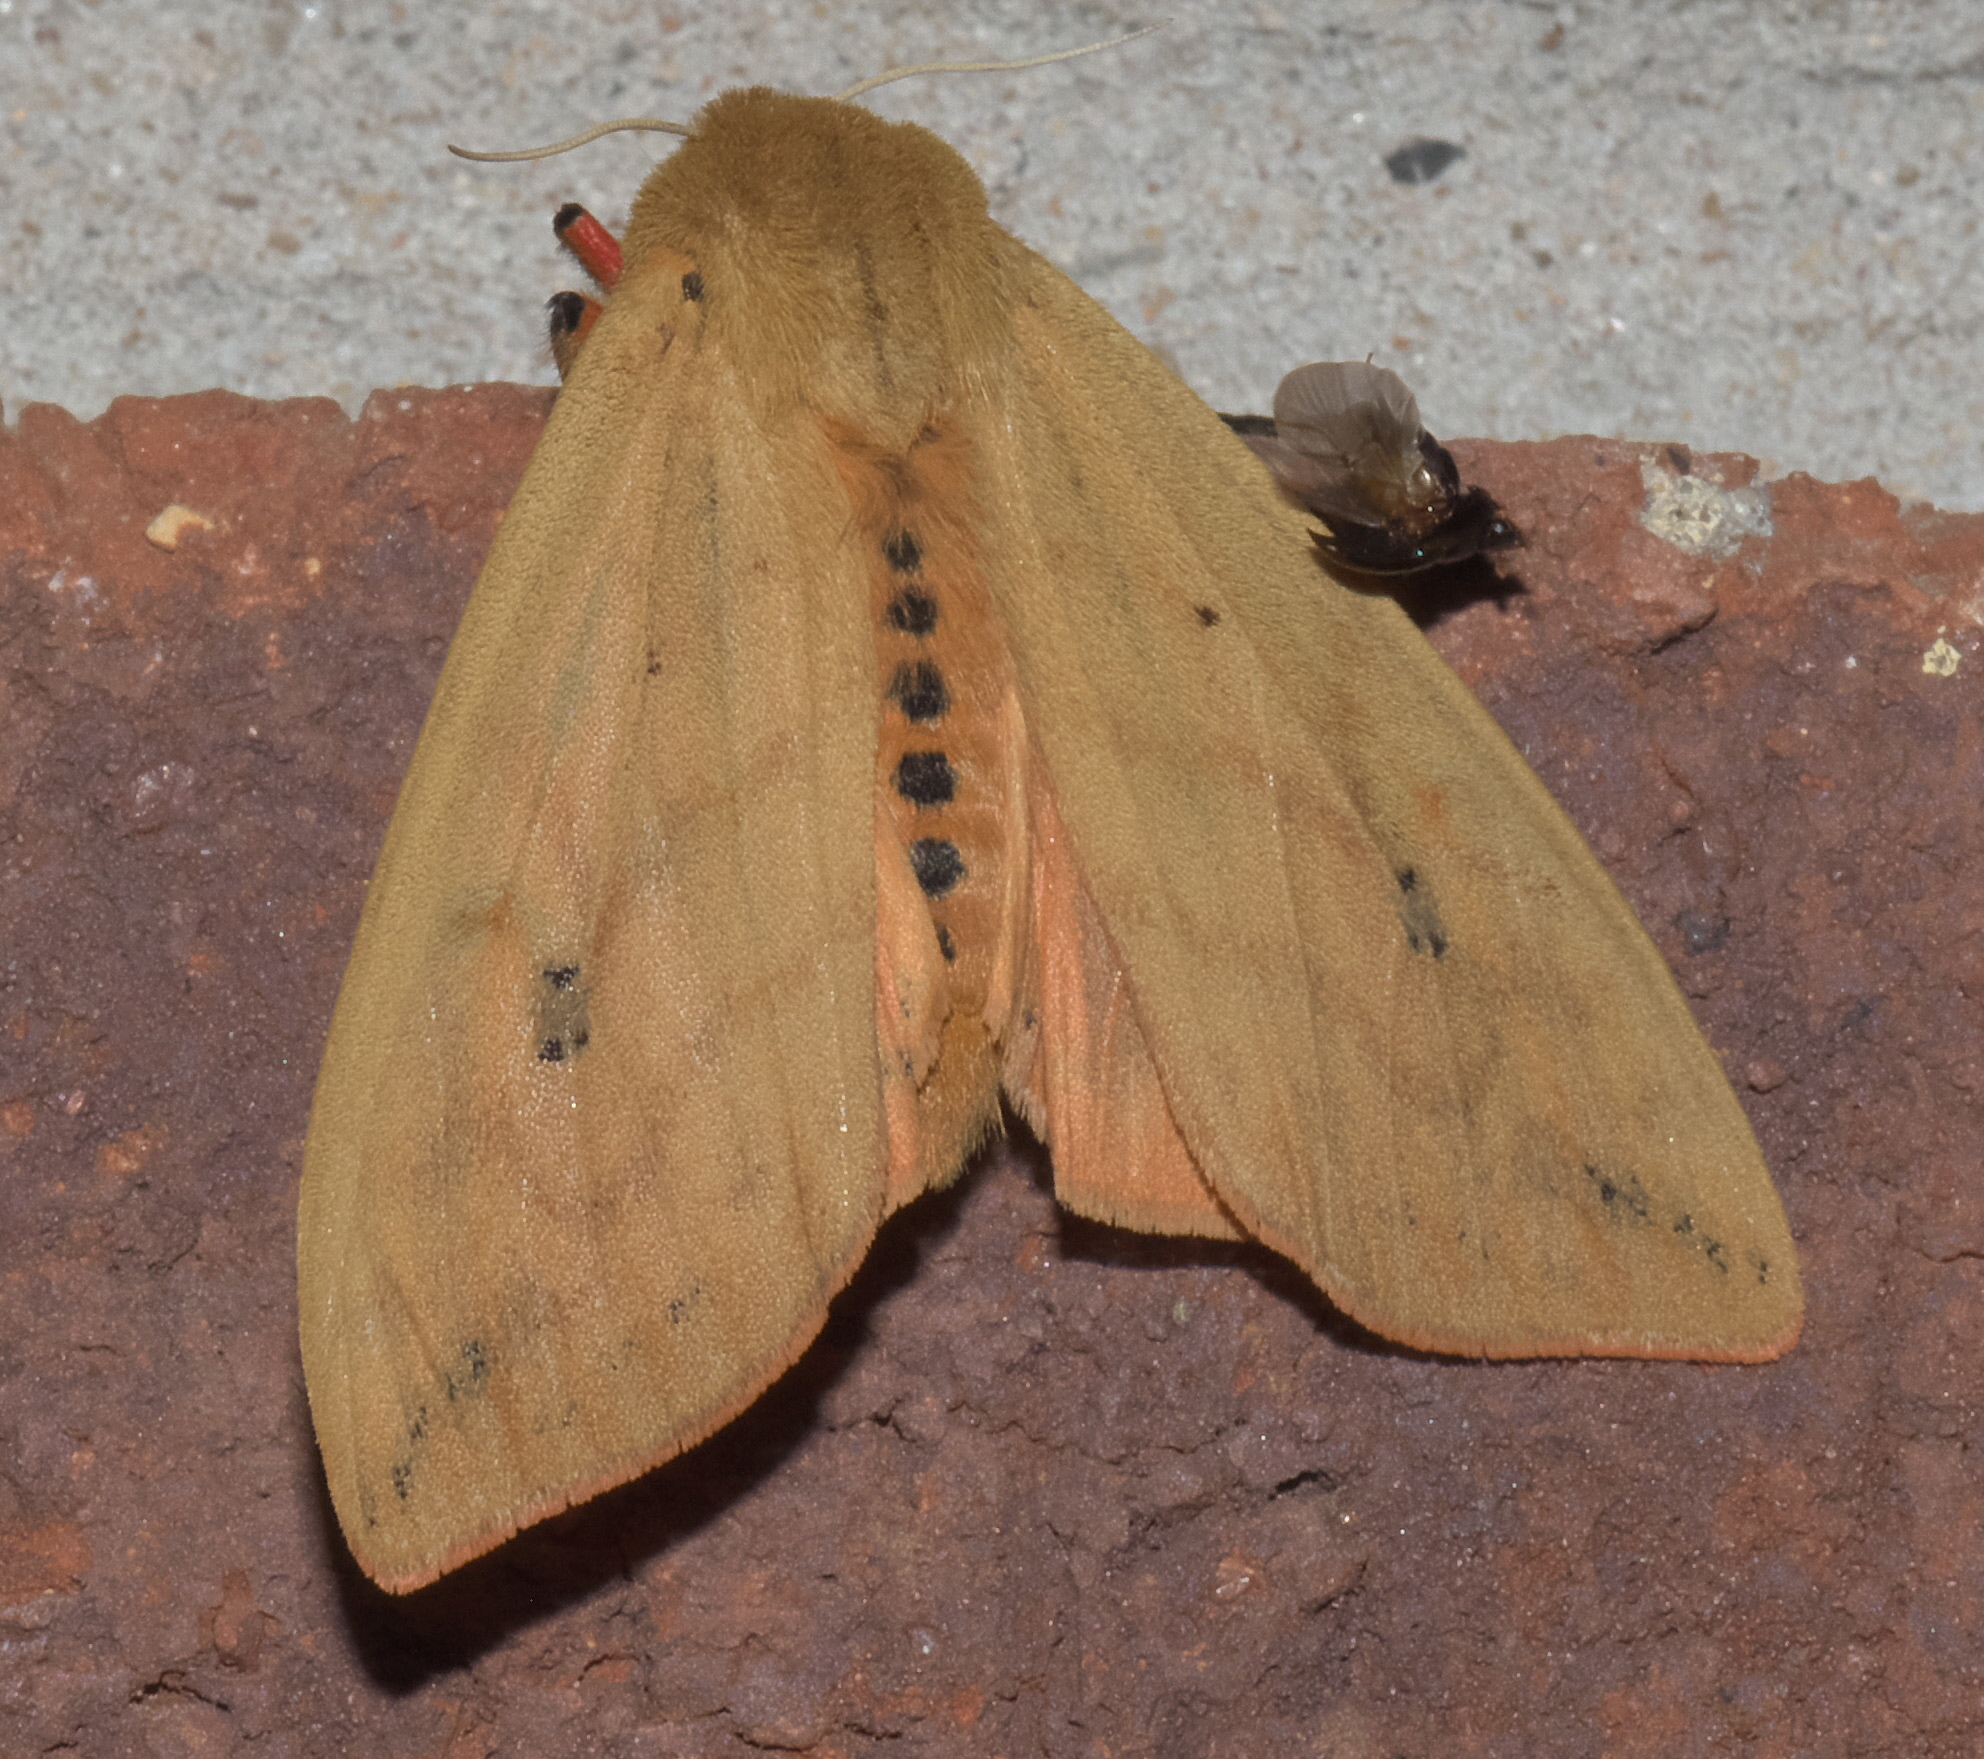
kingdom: Animalia
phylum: Arthropoda
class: Insecta
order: Lepidoptera
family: Erebidae
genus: Pyrrharctia
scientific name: Pyrrharctia isabella
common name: Isabella tiger moth
